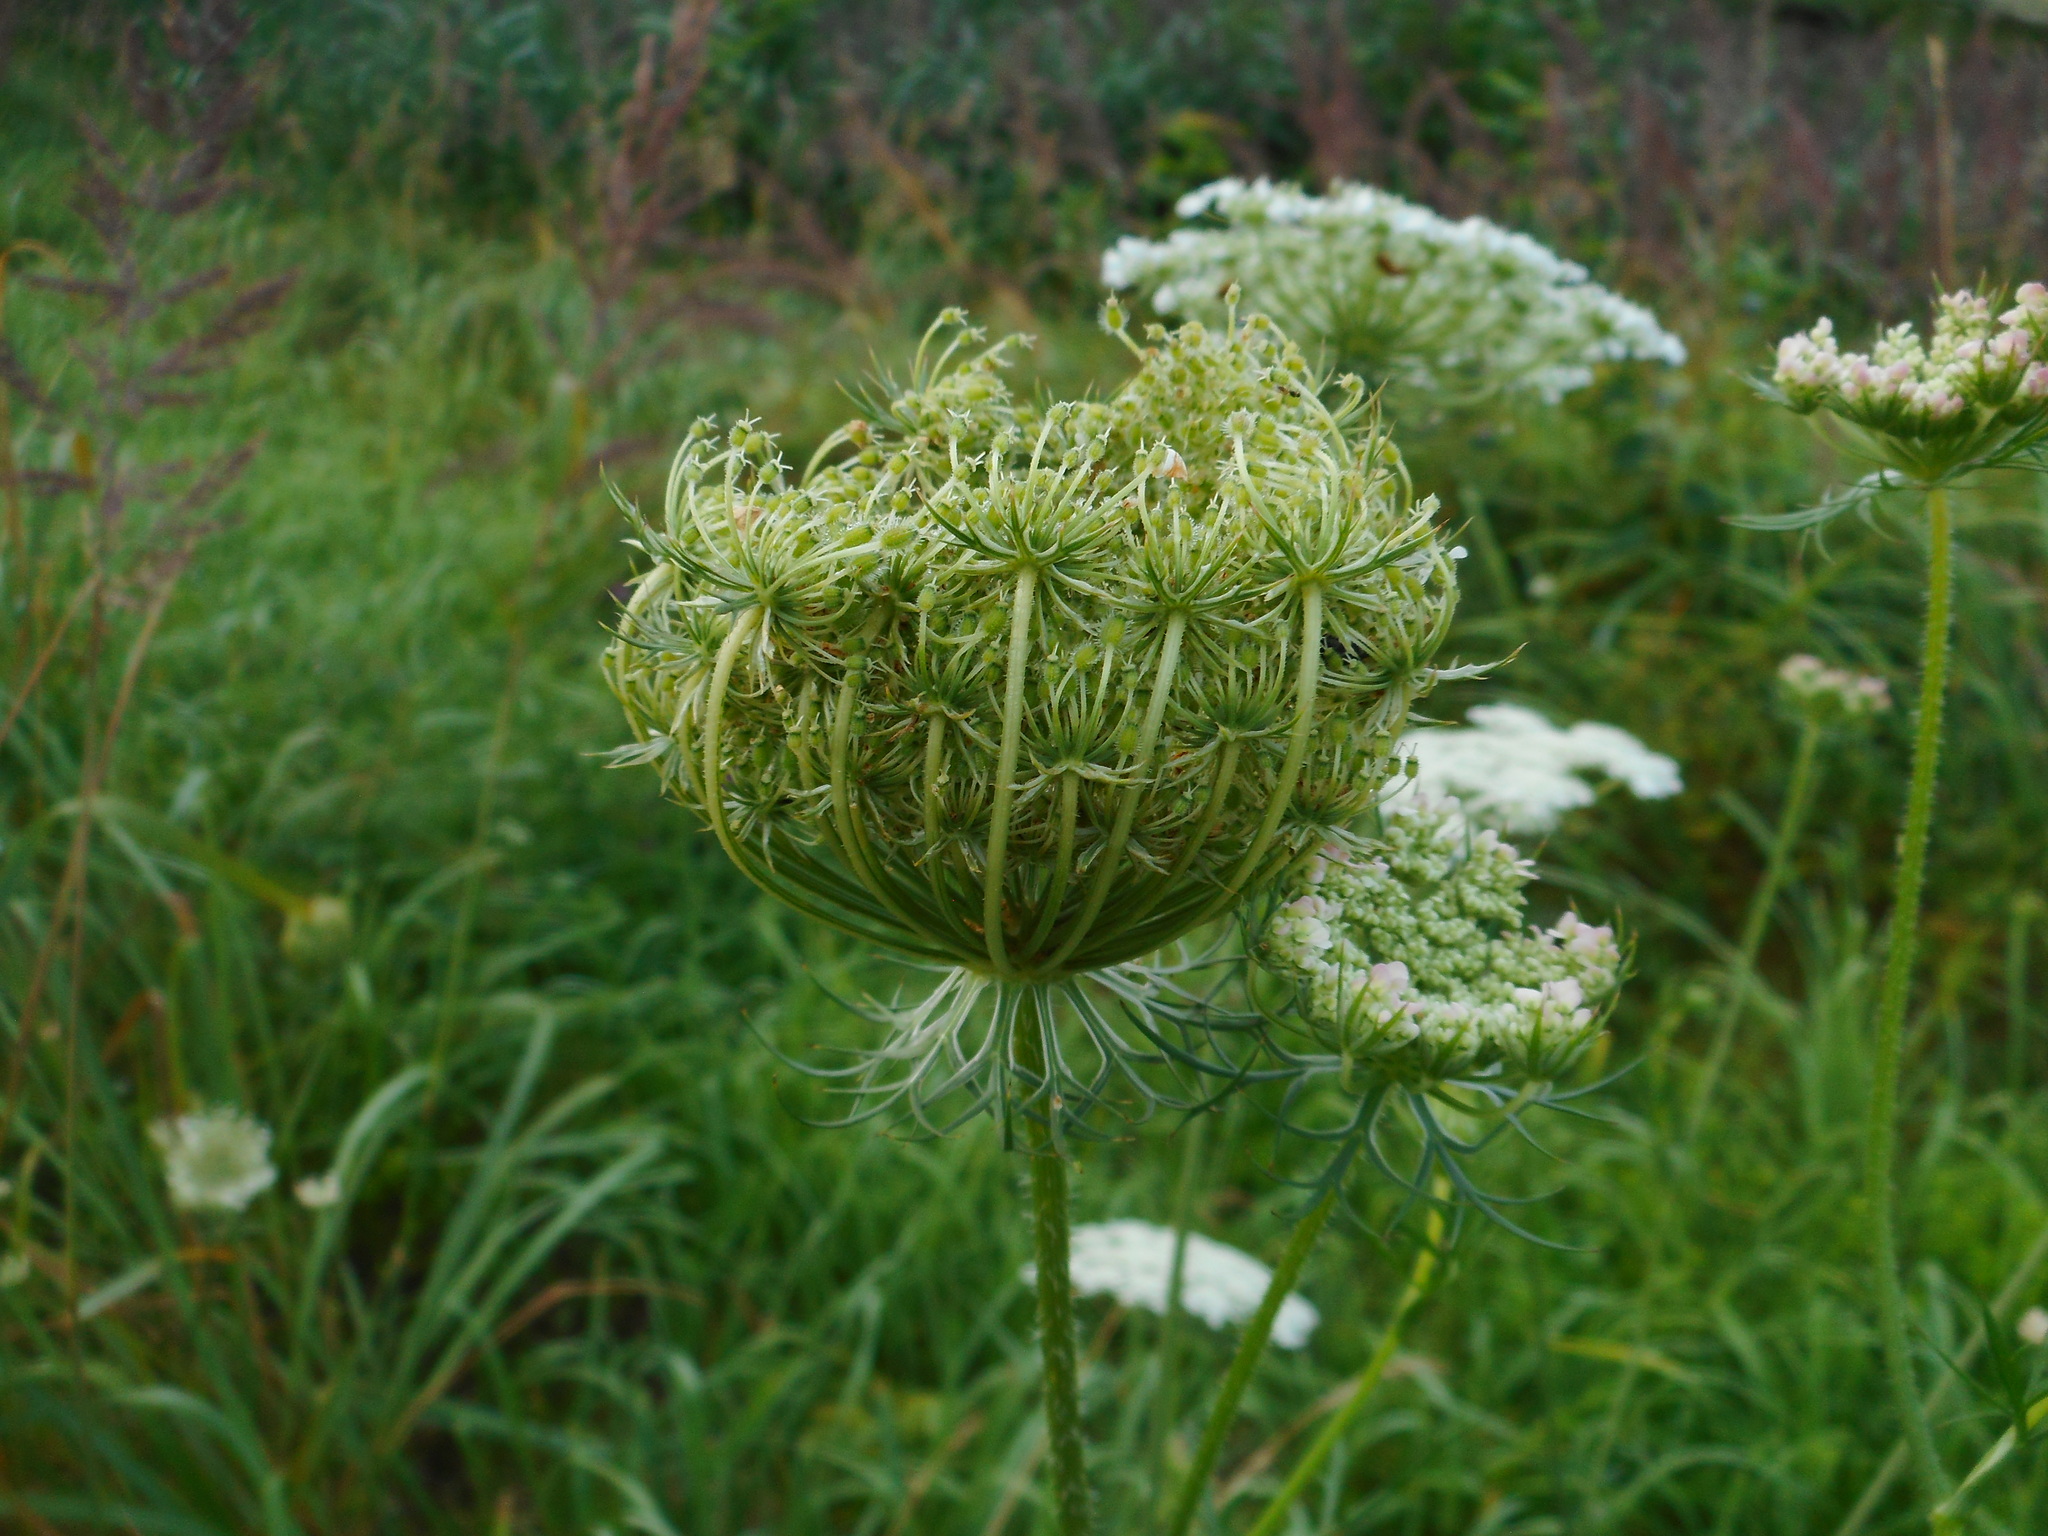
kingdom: Plantae
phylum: Tracheophyta
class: Magnoliopsida
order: Apiales
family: Apiaceae
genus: Daucus
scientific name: Daucus carota
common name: Wild carrot
